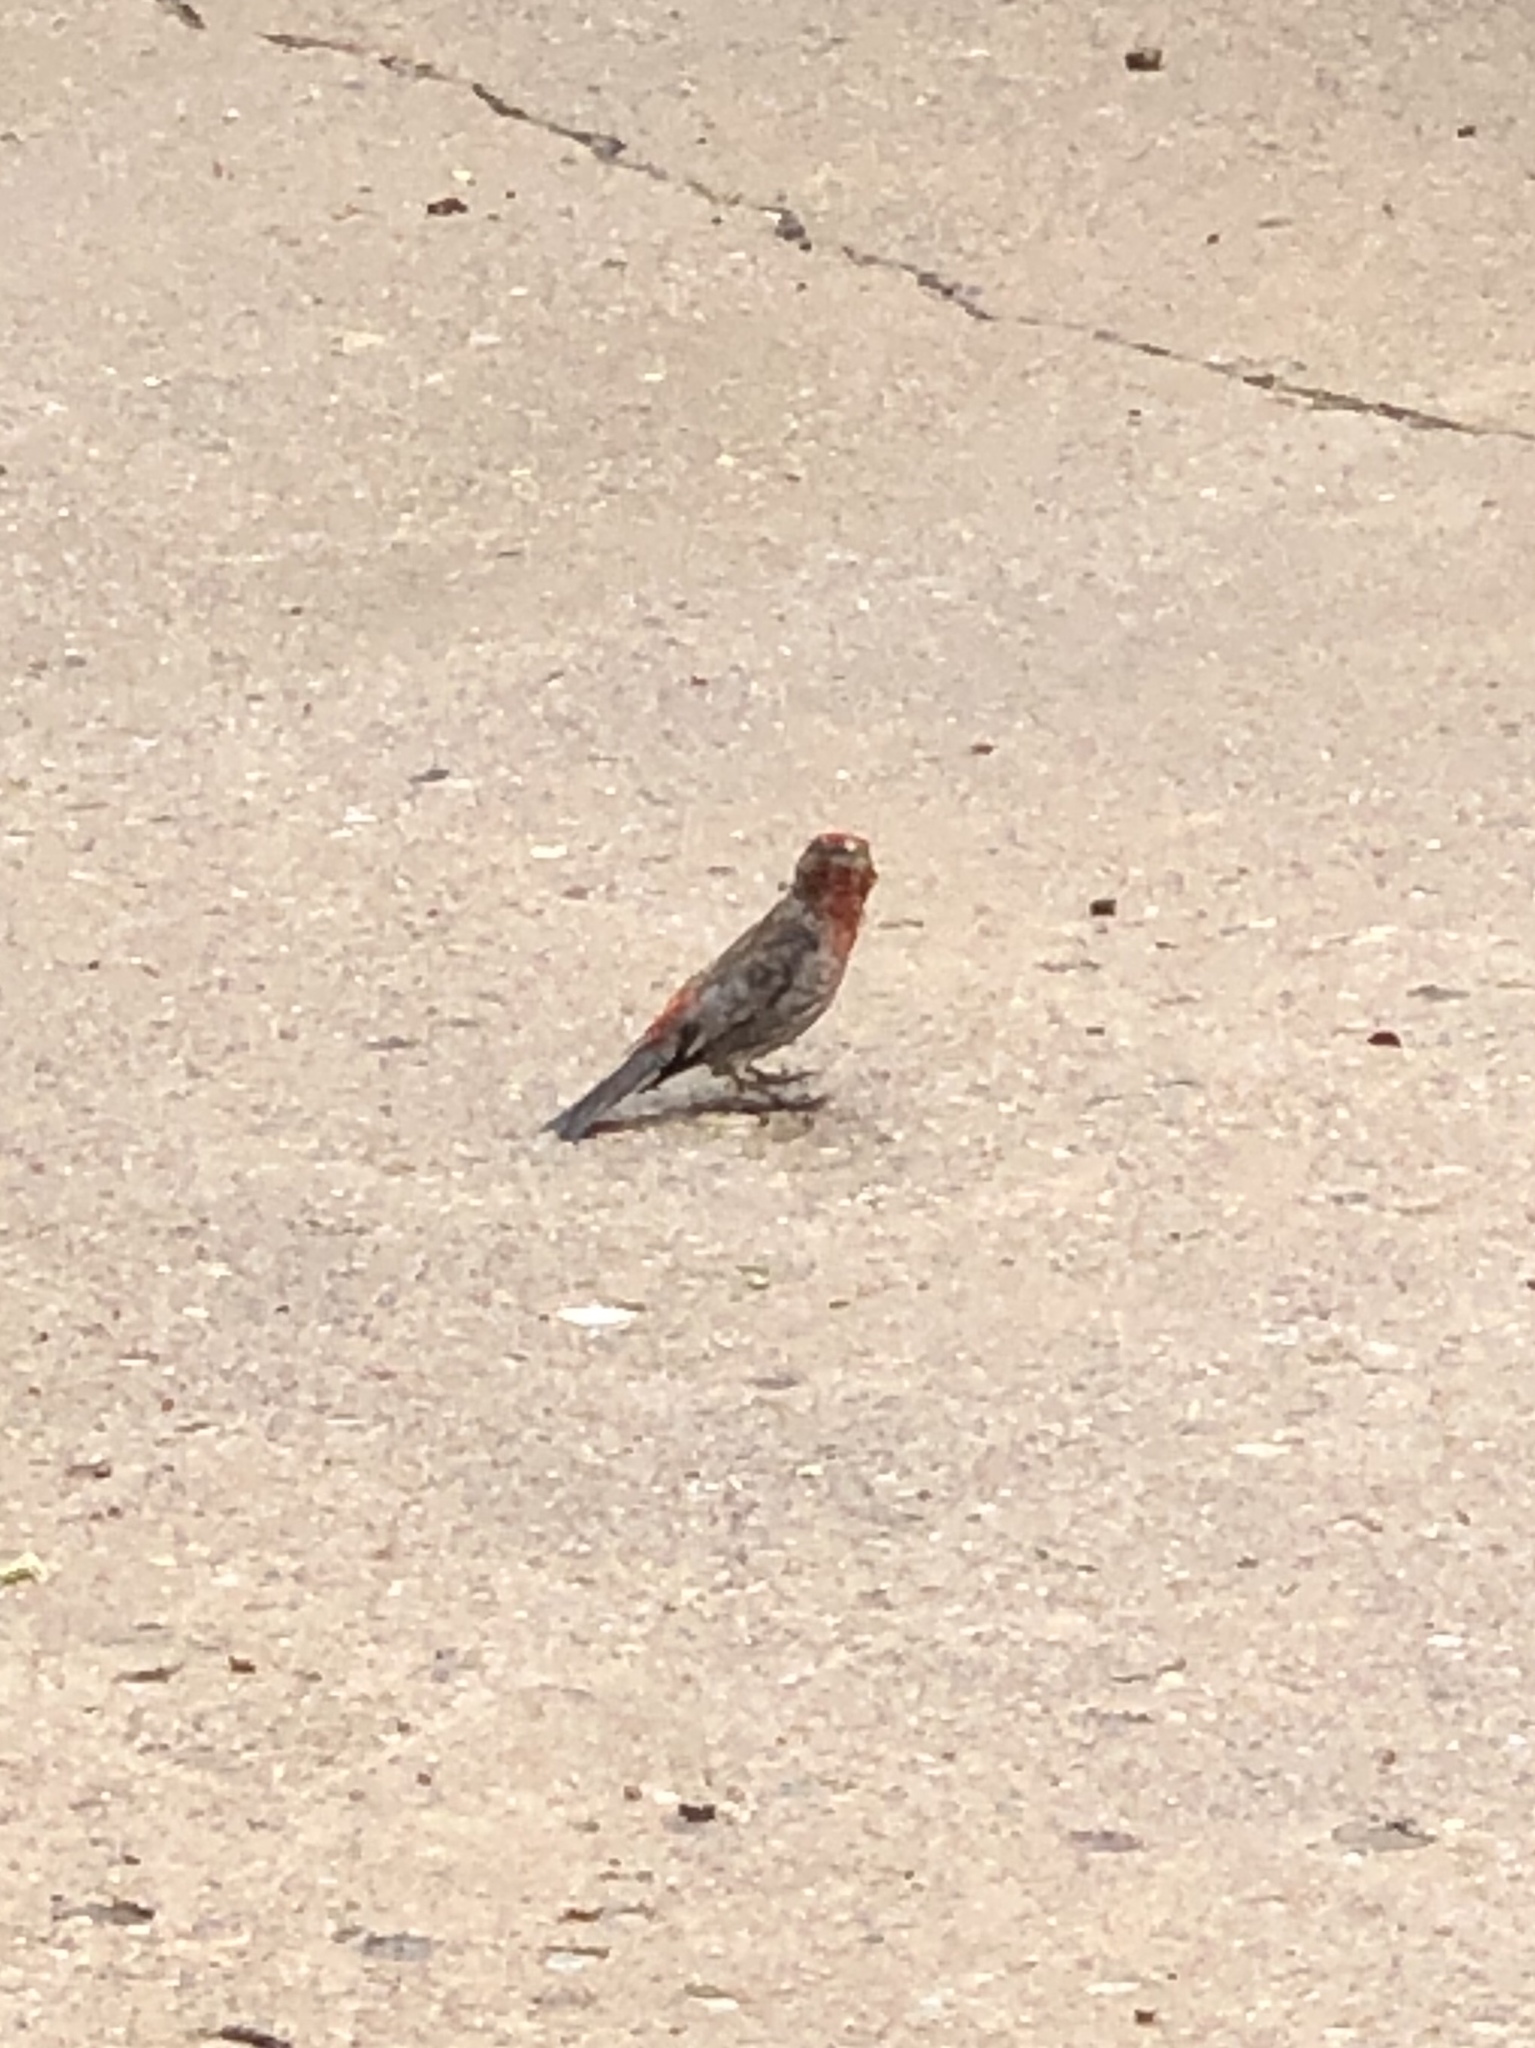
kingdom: Animalia
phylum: Chordata
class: Aves
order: Passeriformes
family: Fringillidae
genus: Haemorhous
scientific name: Haemorhous mexicanus
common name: House finch
